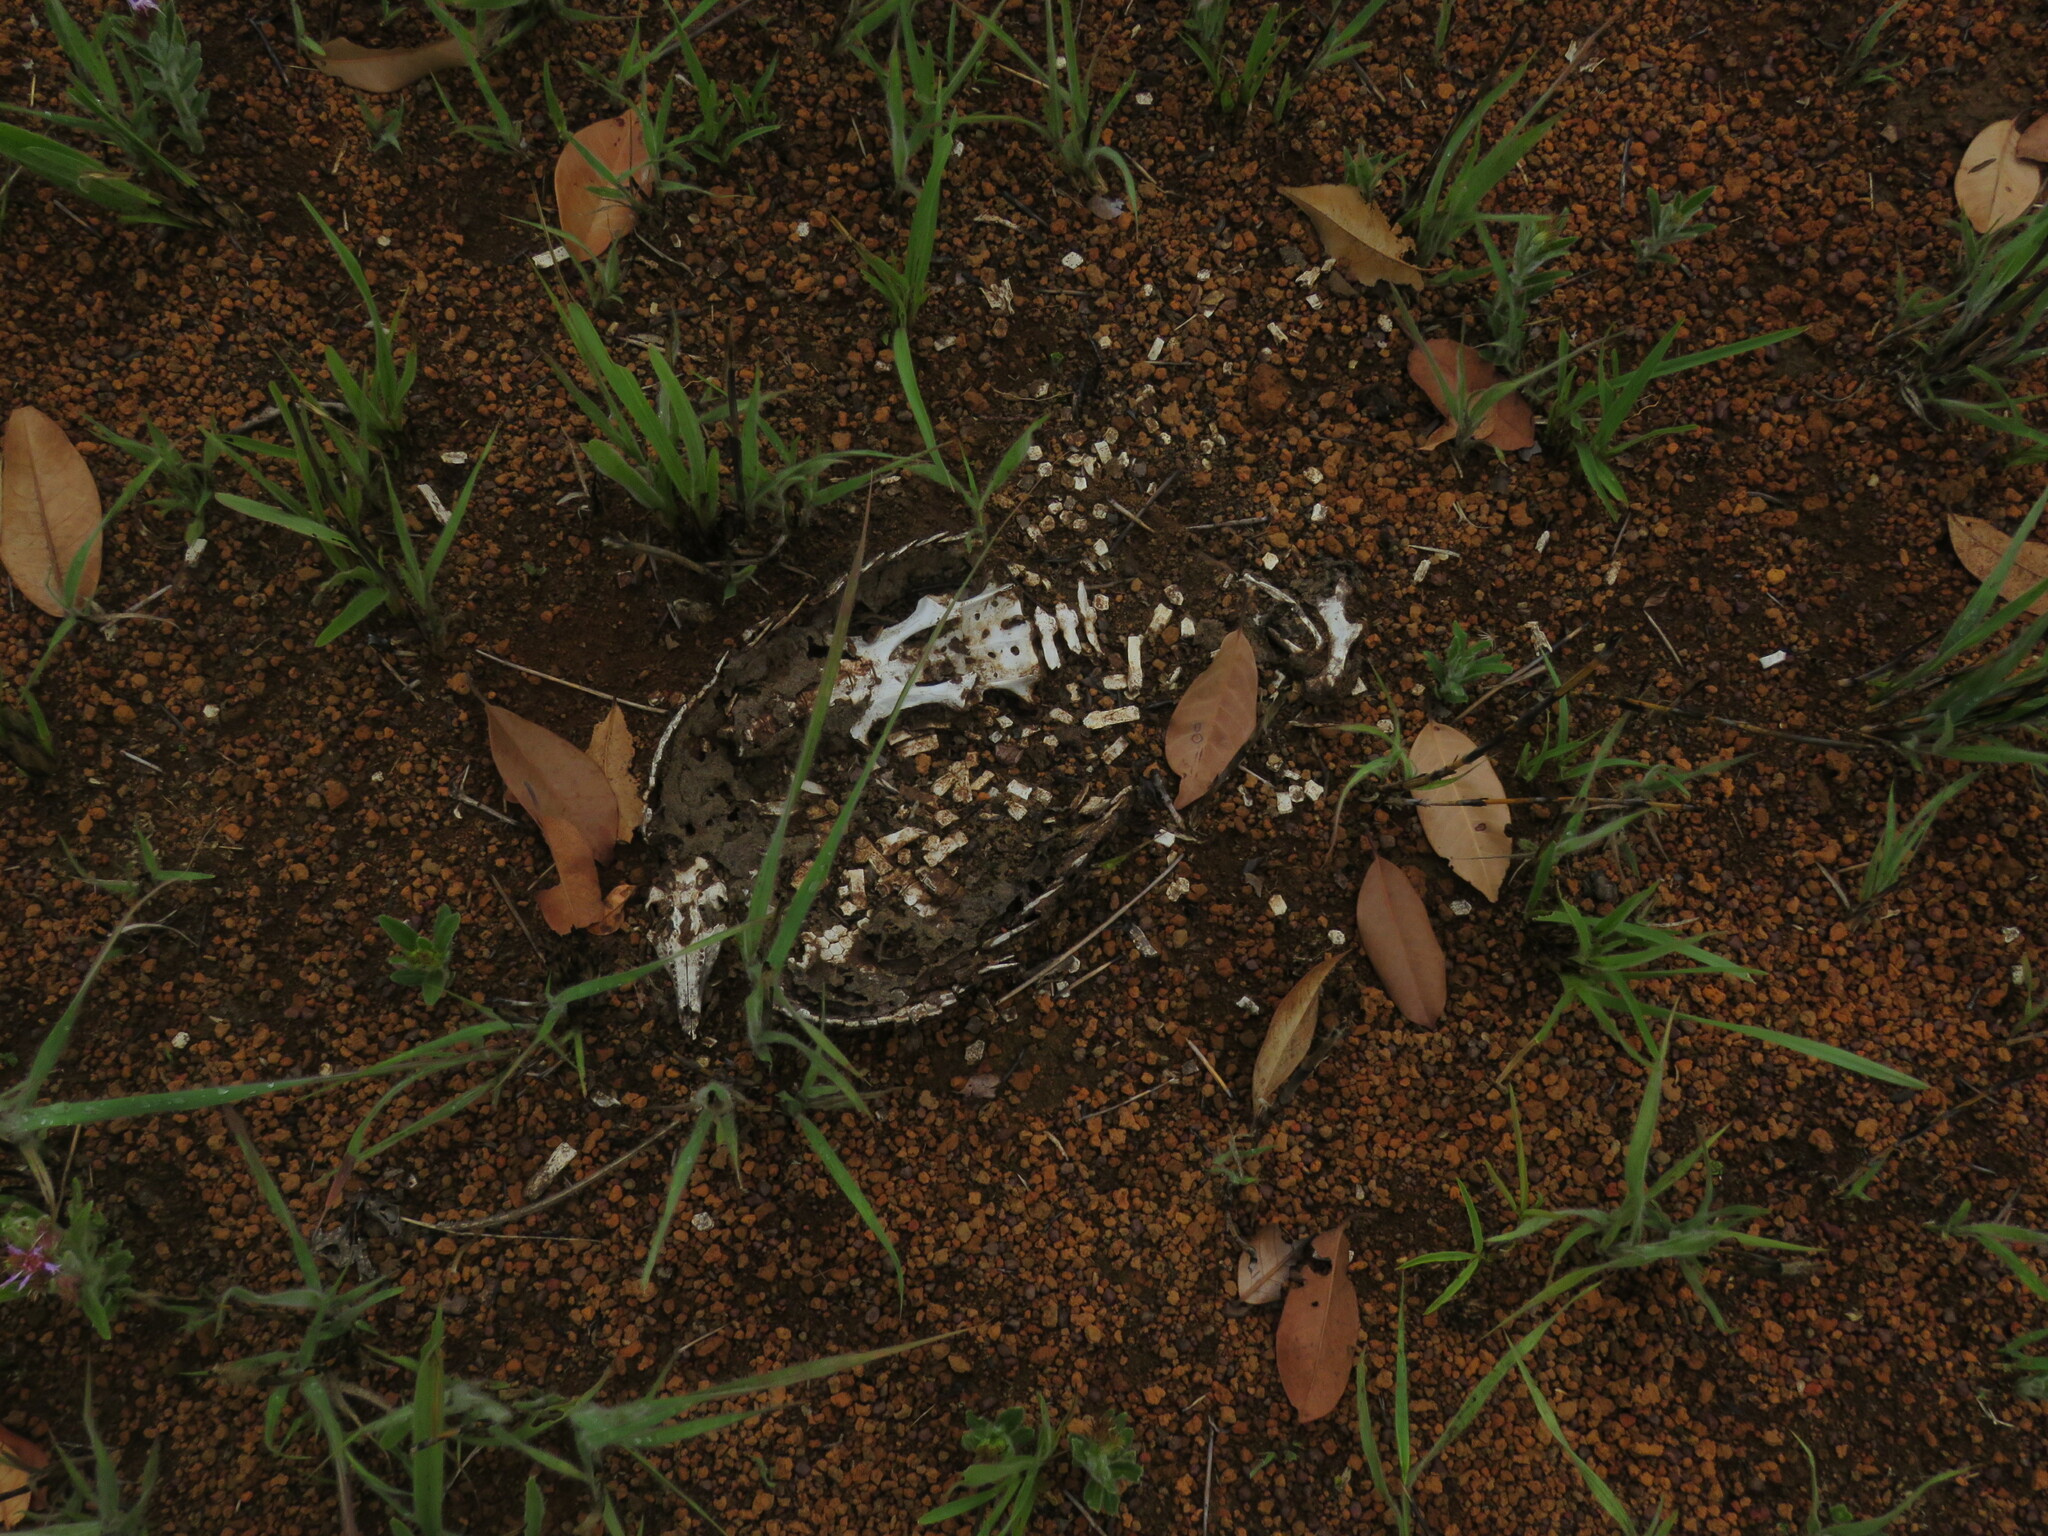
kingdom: Animalia
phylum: Chordata
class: Mammalia
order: Cingulata
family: Dasypodidae
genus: Euphractus
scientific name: Euphractus sexcinctus
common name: Six-banded armadillo
